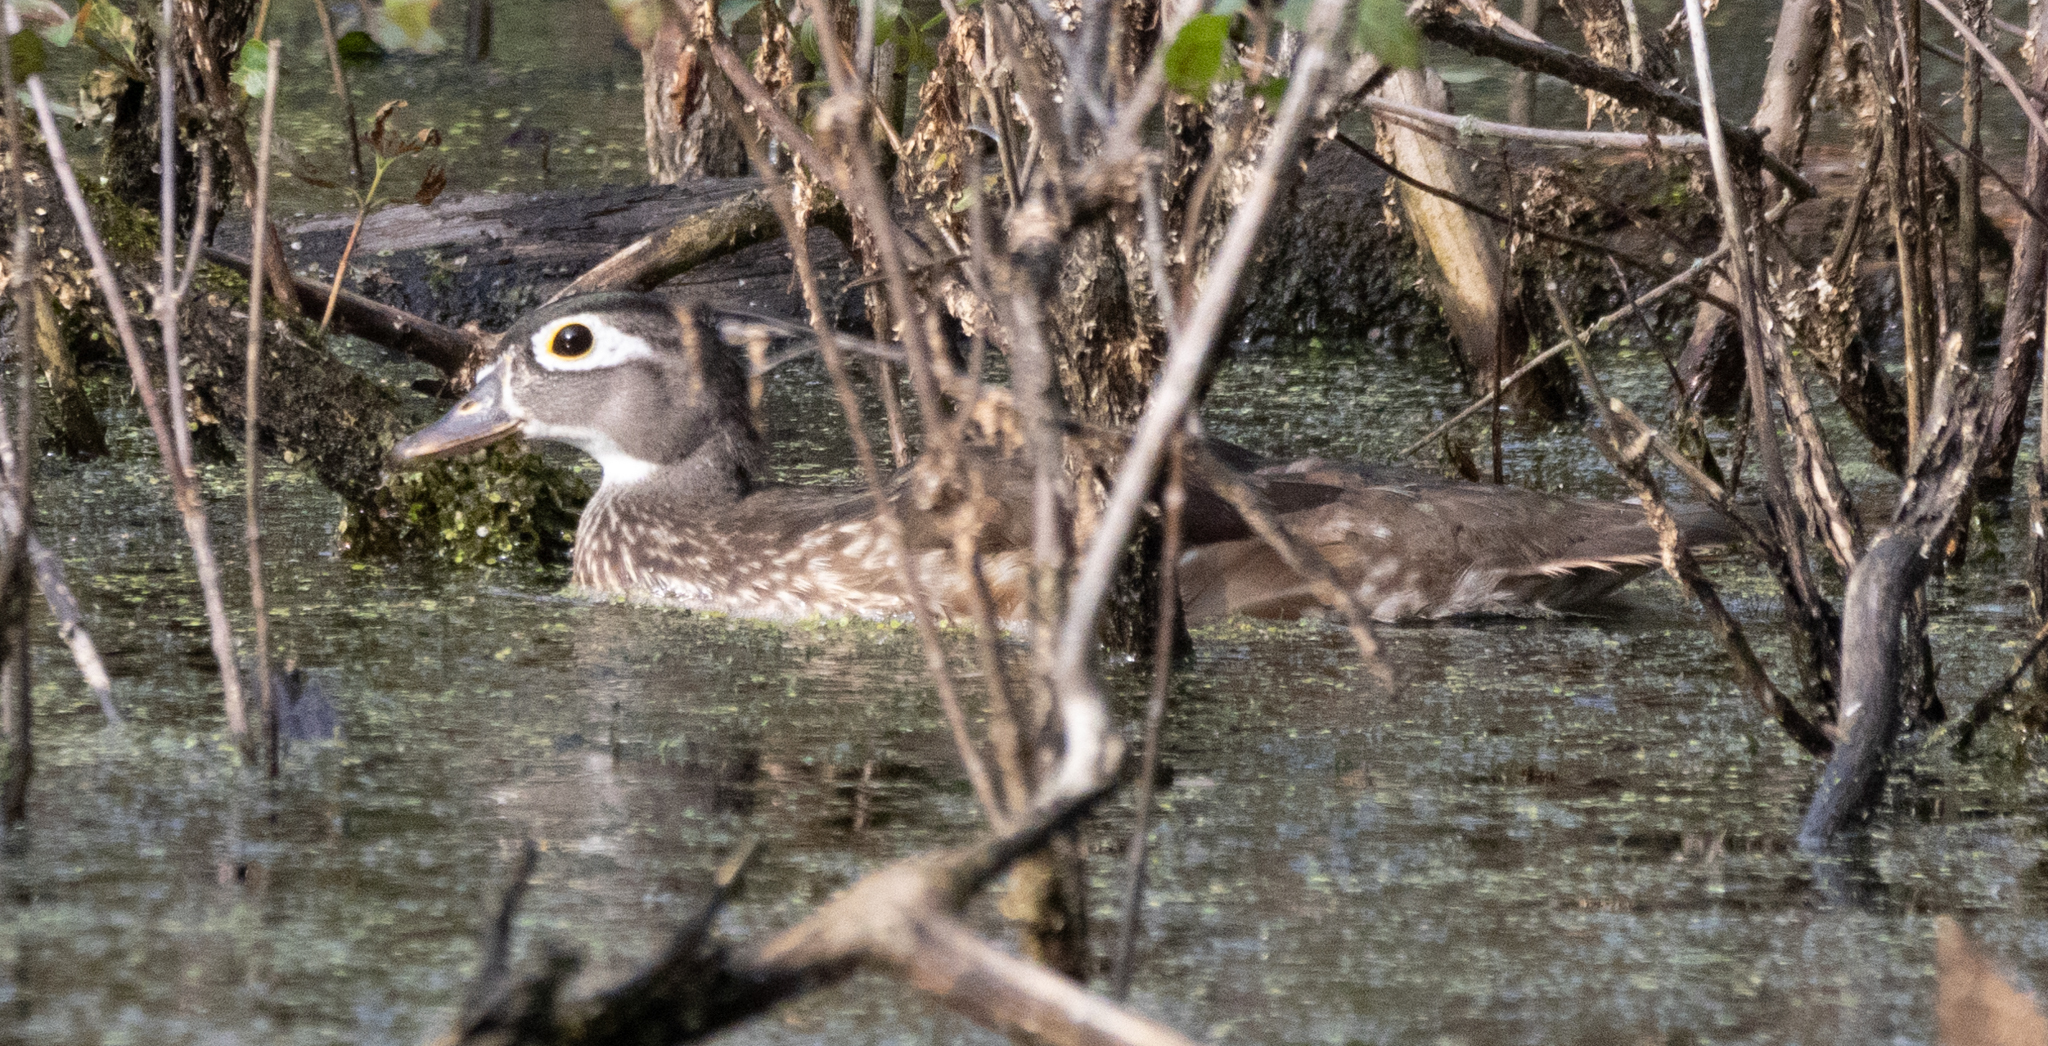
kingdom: Animalia
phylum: Chordata
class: Aves
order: Anseriformes
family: Anatidae
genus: Aix
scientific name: Aix sponsa
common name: Wood duck
